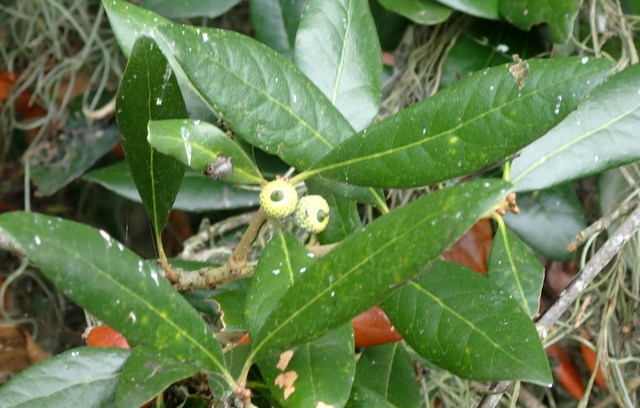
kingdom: Plantae
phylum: Tracheophyta
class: Magnoliopsida
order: Fagales
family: Fagaceae
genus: Quercus
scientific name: Quercus virginiana
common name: Southern live oak
